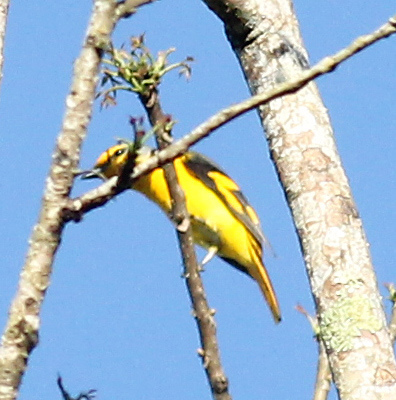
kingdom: Animalia
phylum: Chordata
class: Aves
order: Passeriformes
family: Campephagidae
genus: Pericrocotus
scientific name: Pericrocotus speciosus
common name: Scarlet minivet
